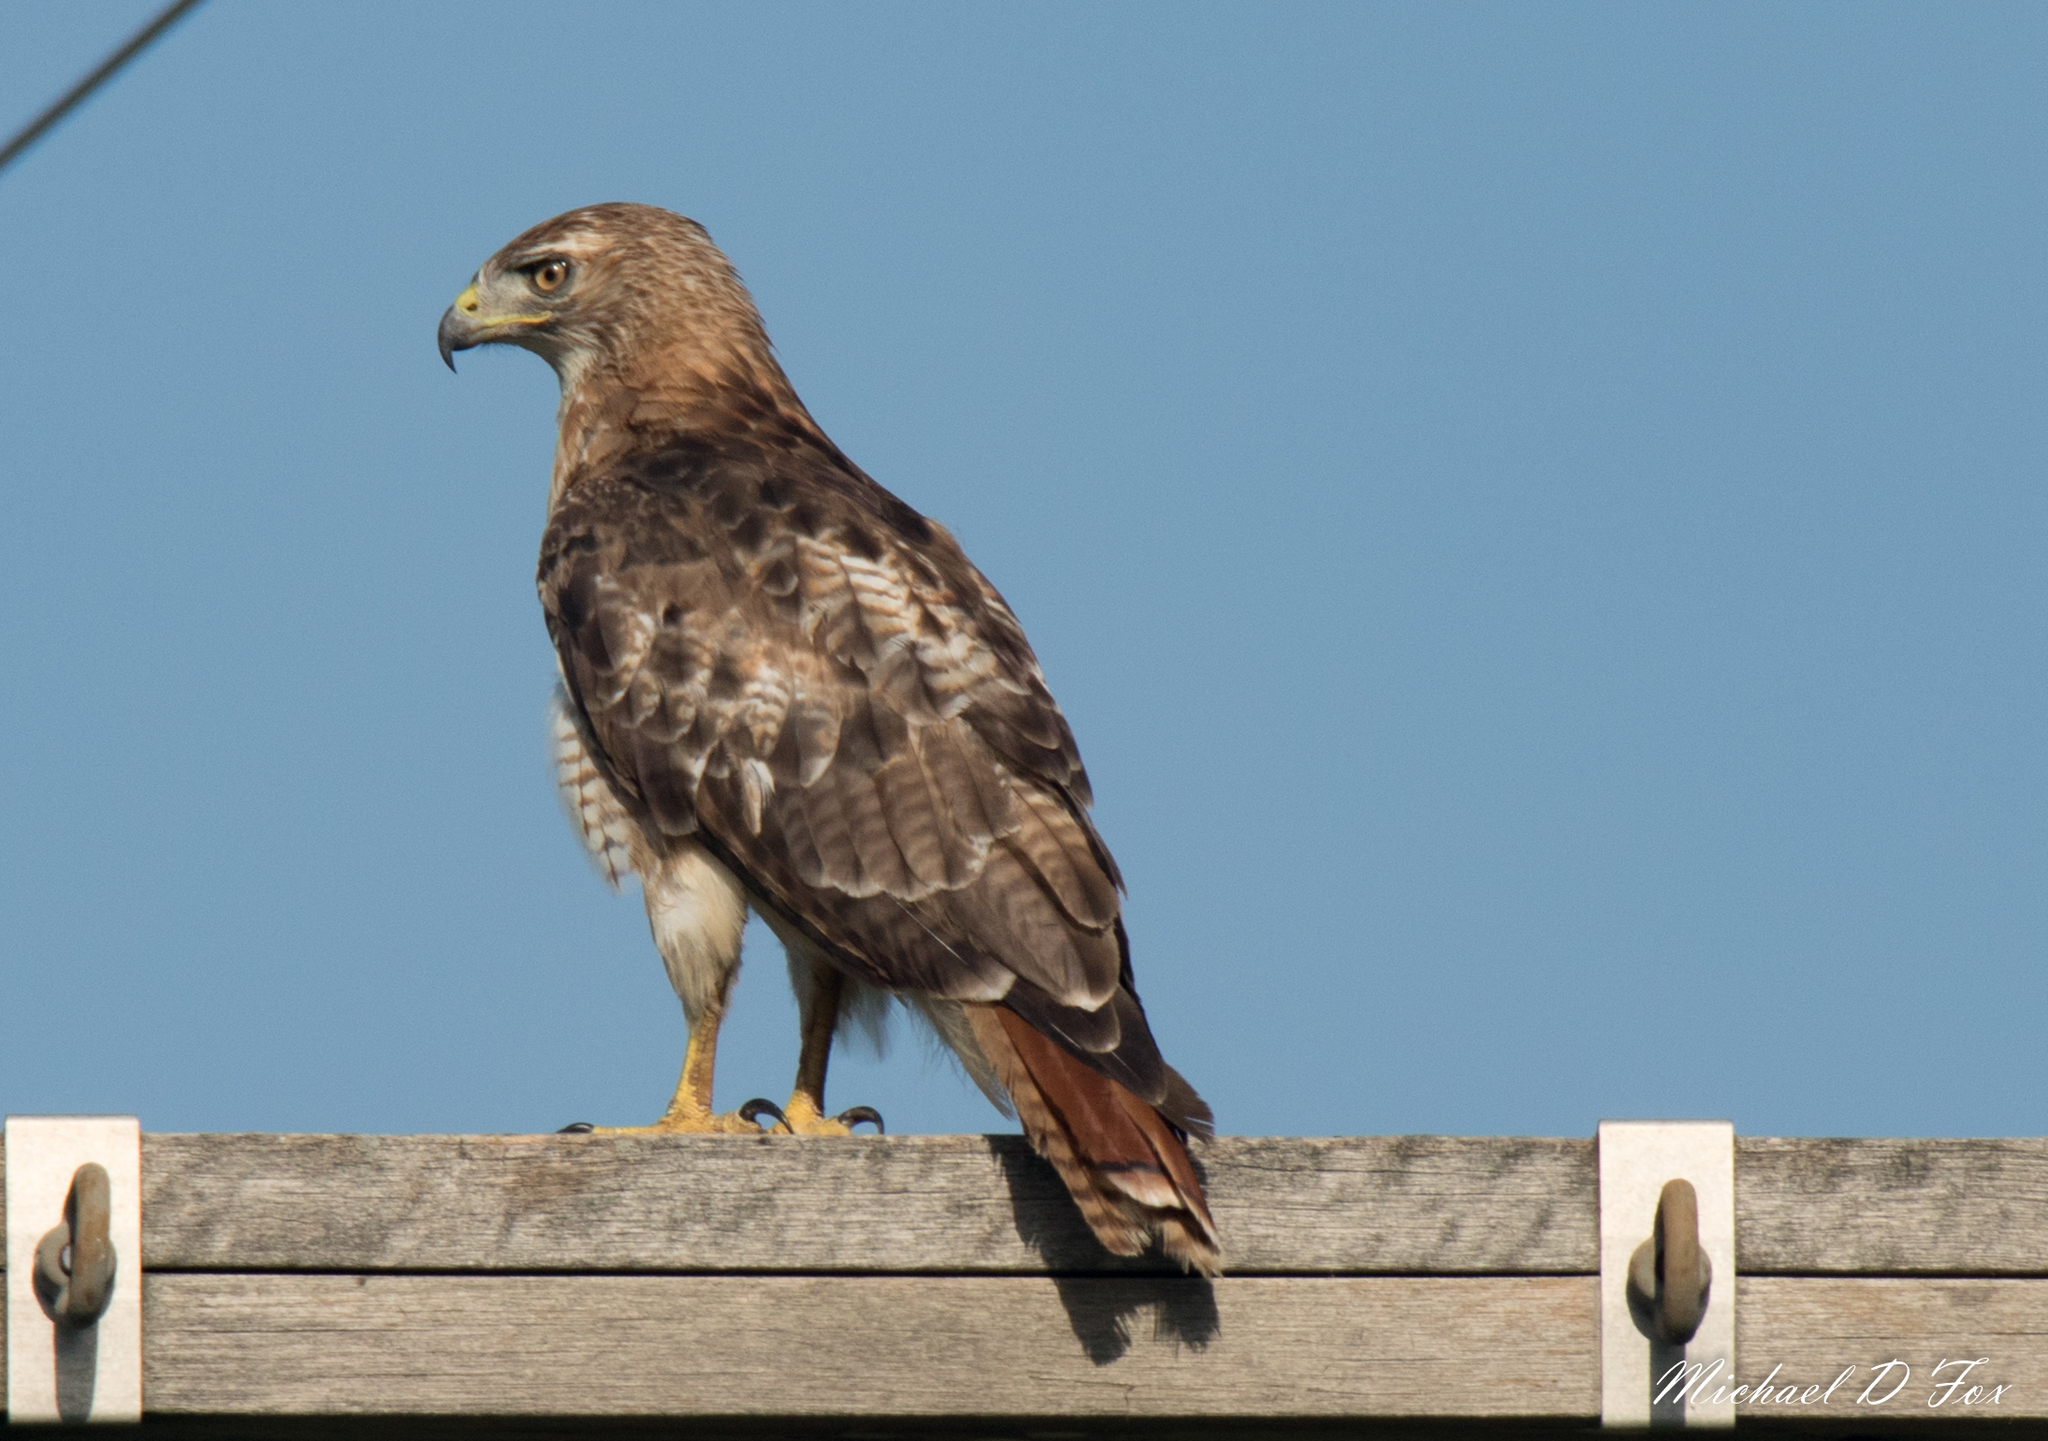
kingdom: Animalia
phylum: Chordata
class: Aves
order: Accipitriformes
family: Accipitridae
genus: Buteo
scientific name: Buteo jamaicensis
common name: Red-tailed hawk
